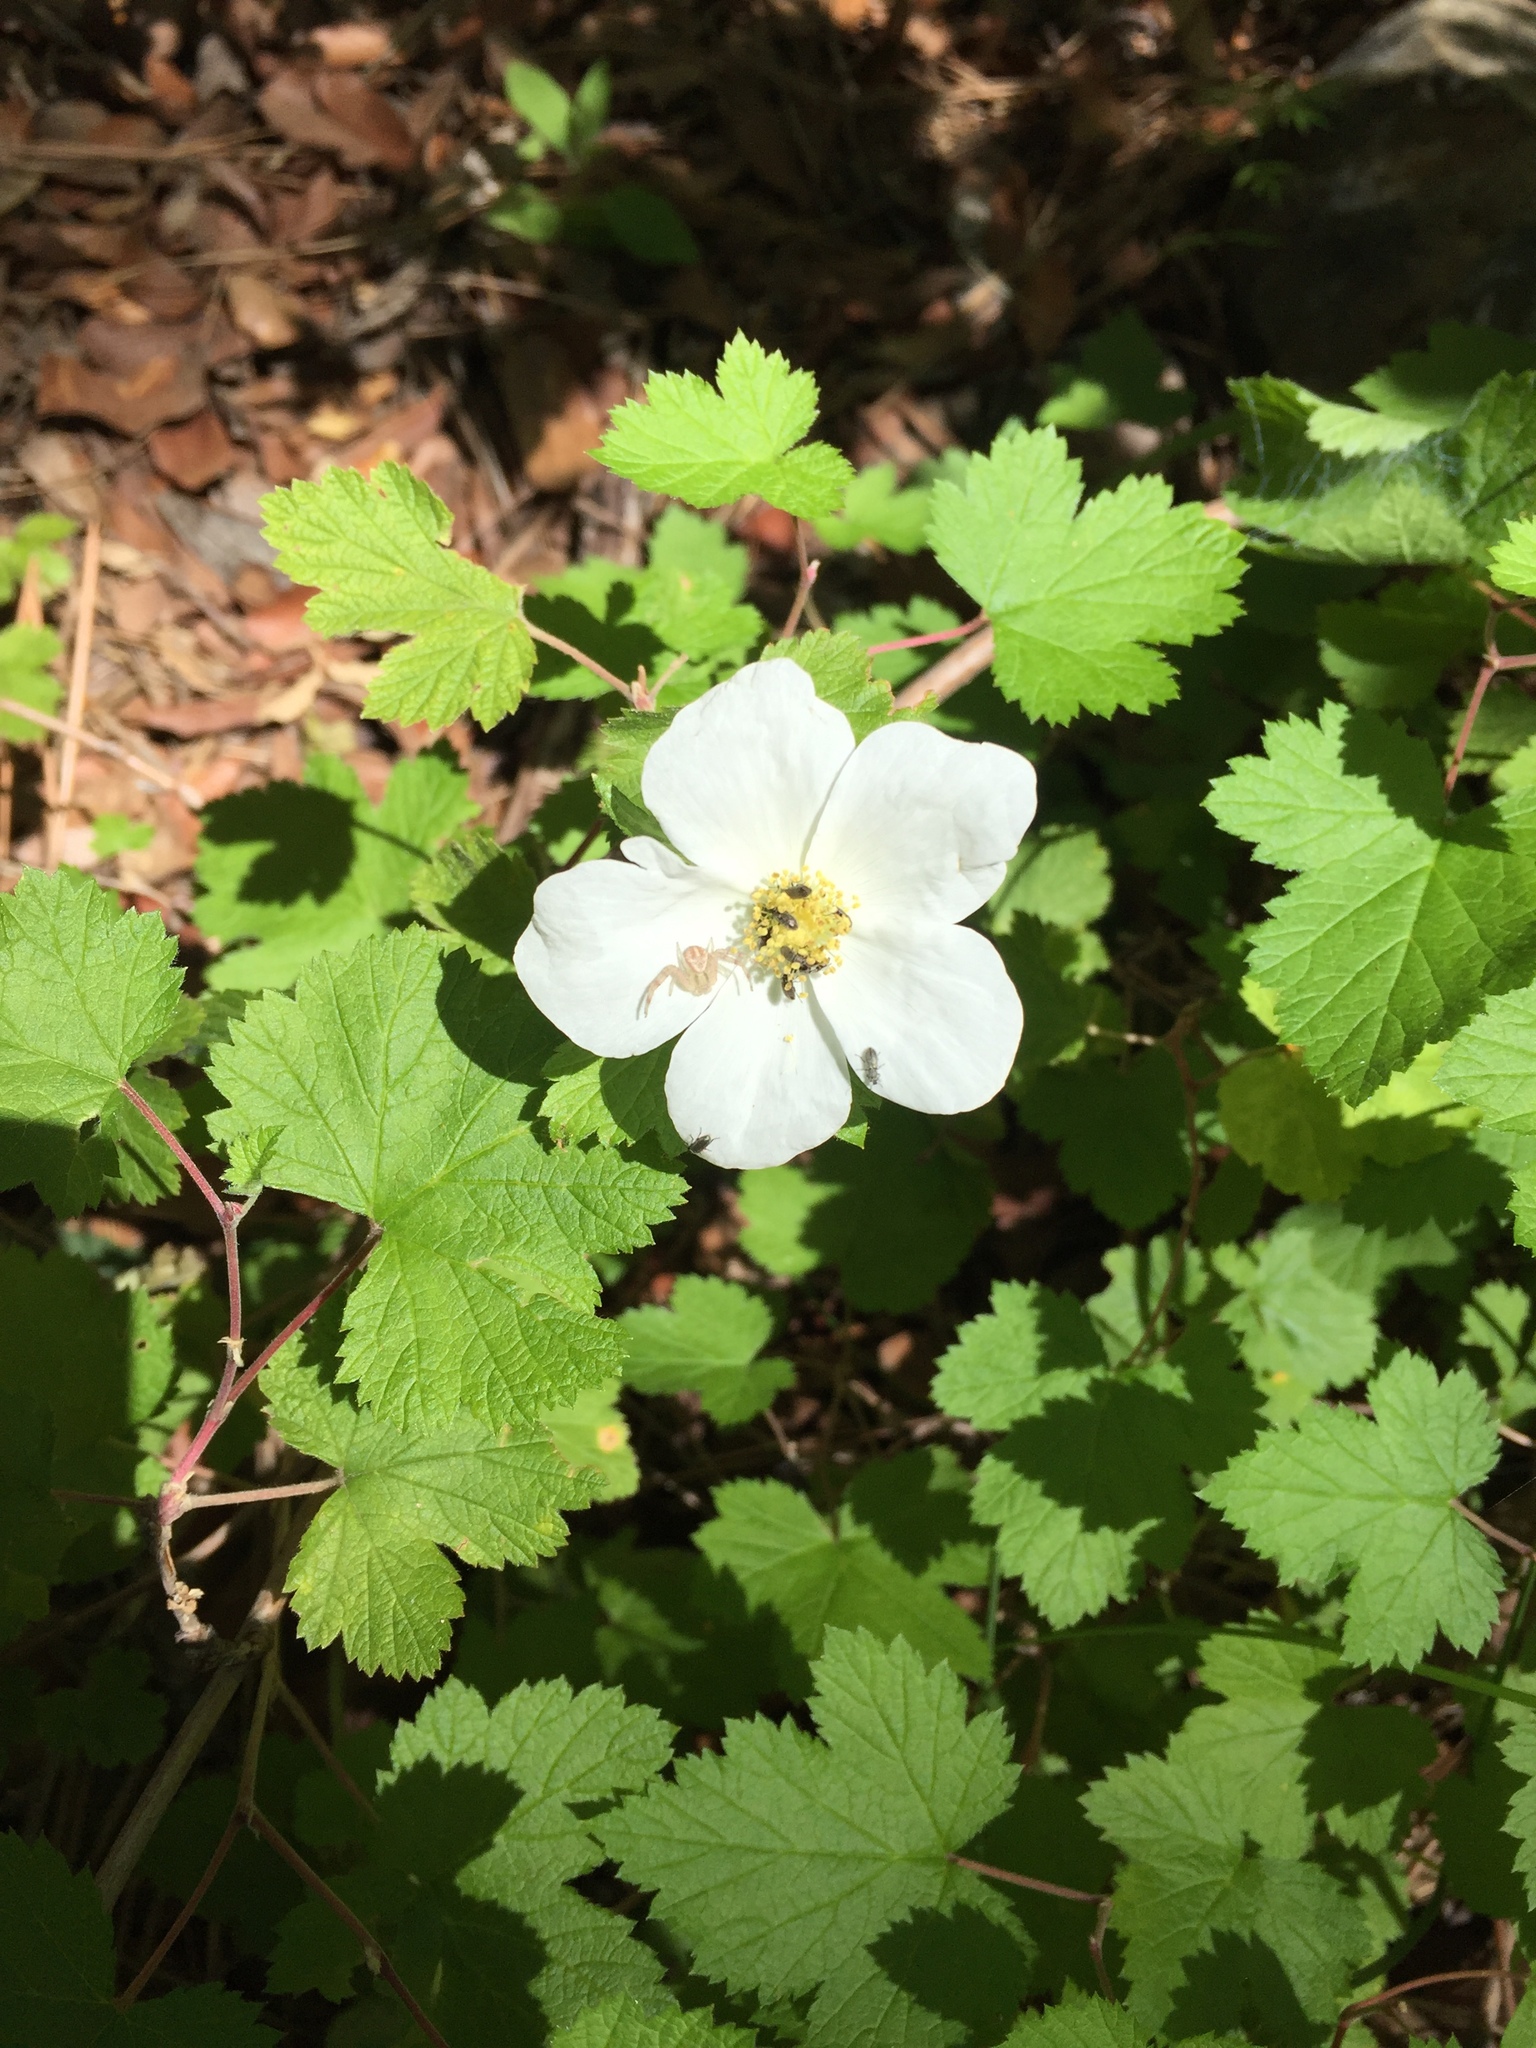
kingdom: Plantae
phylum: Tracheophyta
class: Magnoliopsida
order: Rosales
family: Rosaceae
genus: Rubus
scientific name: Rubus neomexicanus
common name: New mexico raspberry
